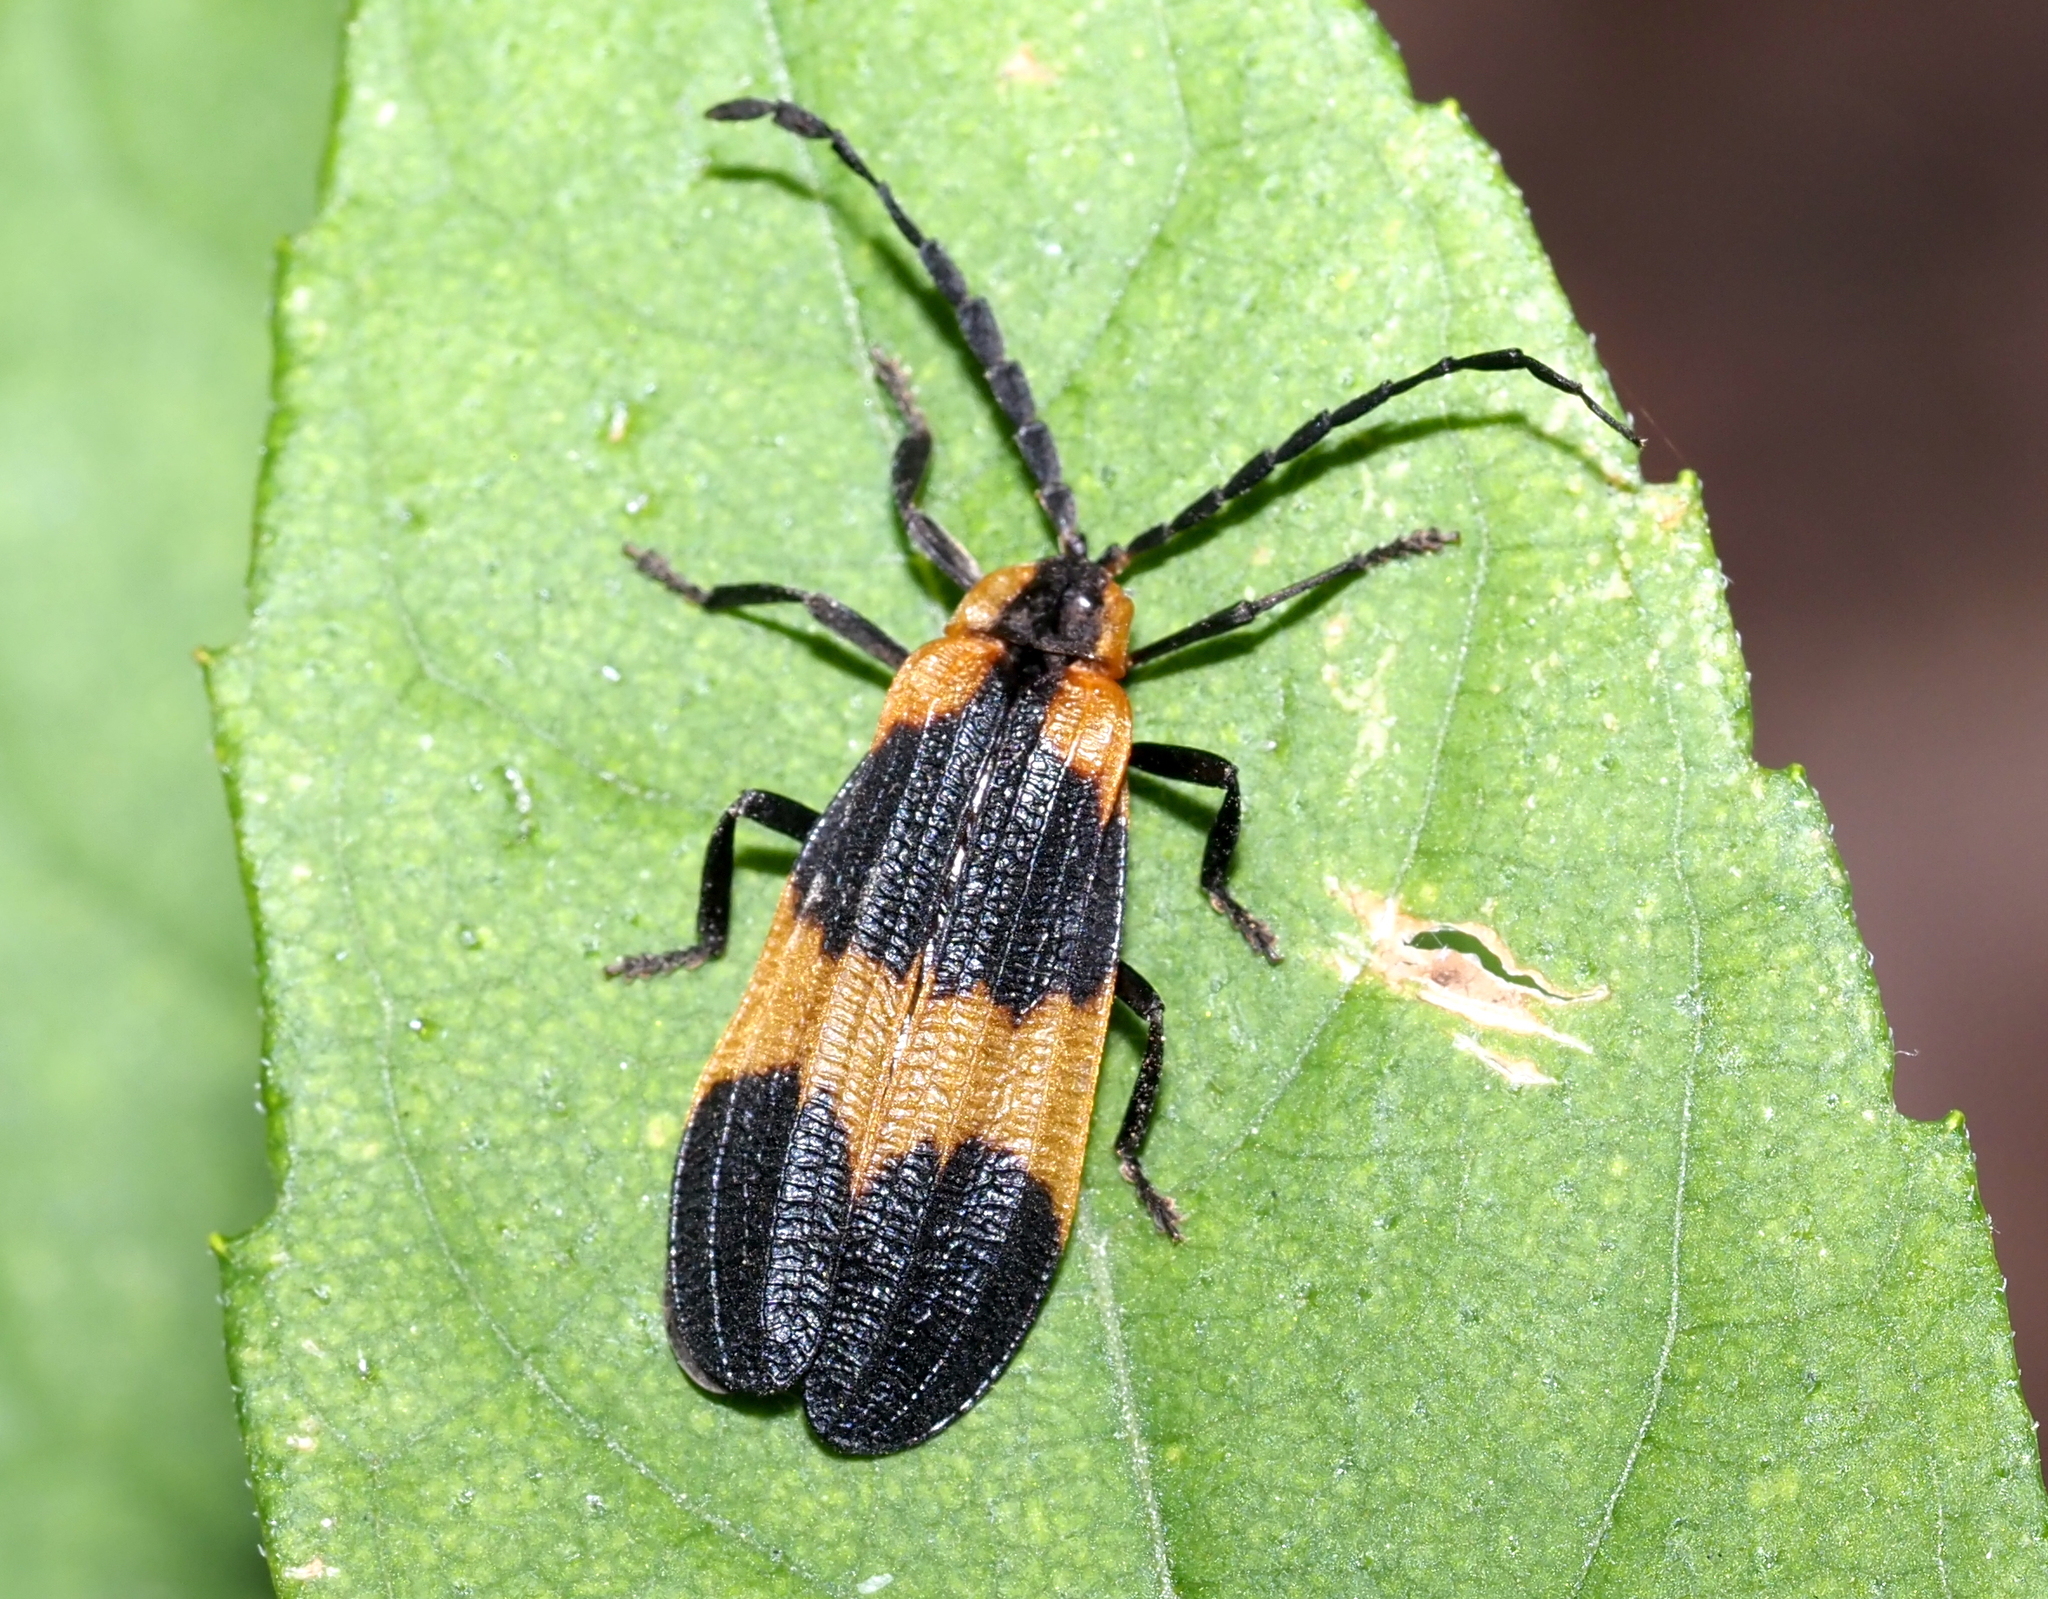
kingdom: Animalia
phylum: Arthropoda
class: Insecta
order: Coleoptera
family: Lycidae
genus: Calopteron
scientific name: Calopteron reticulatum
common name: Banded net-winged beetle
